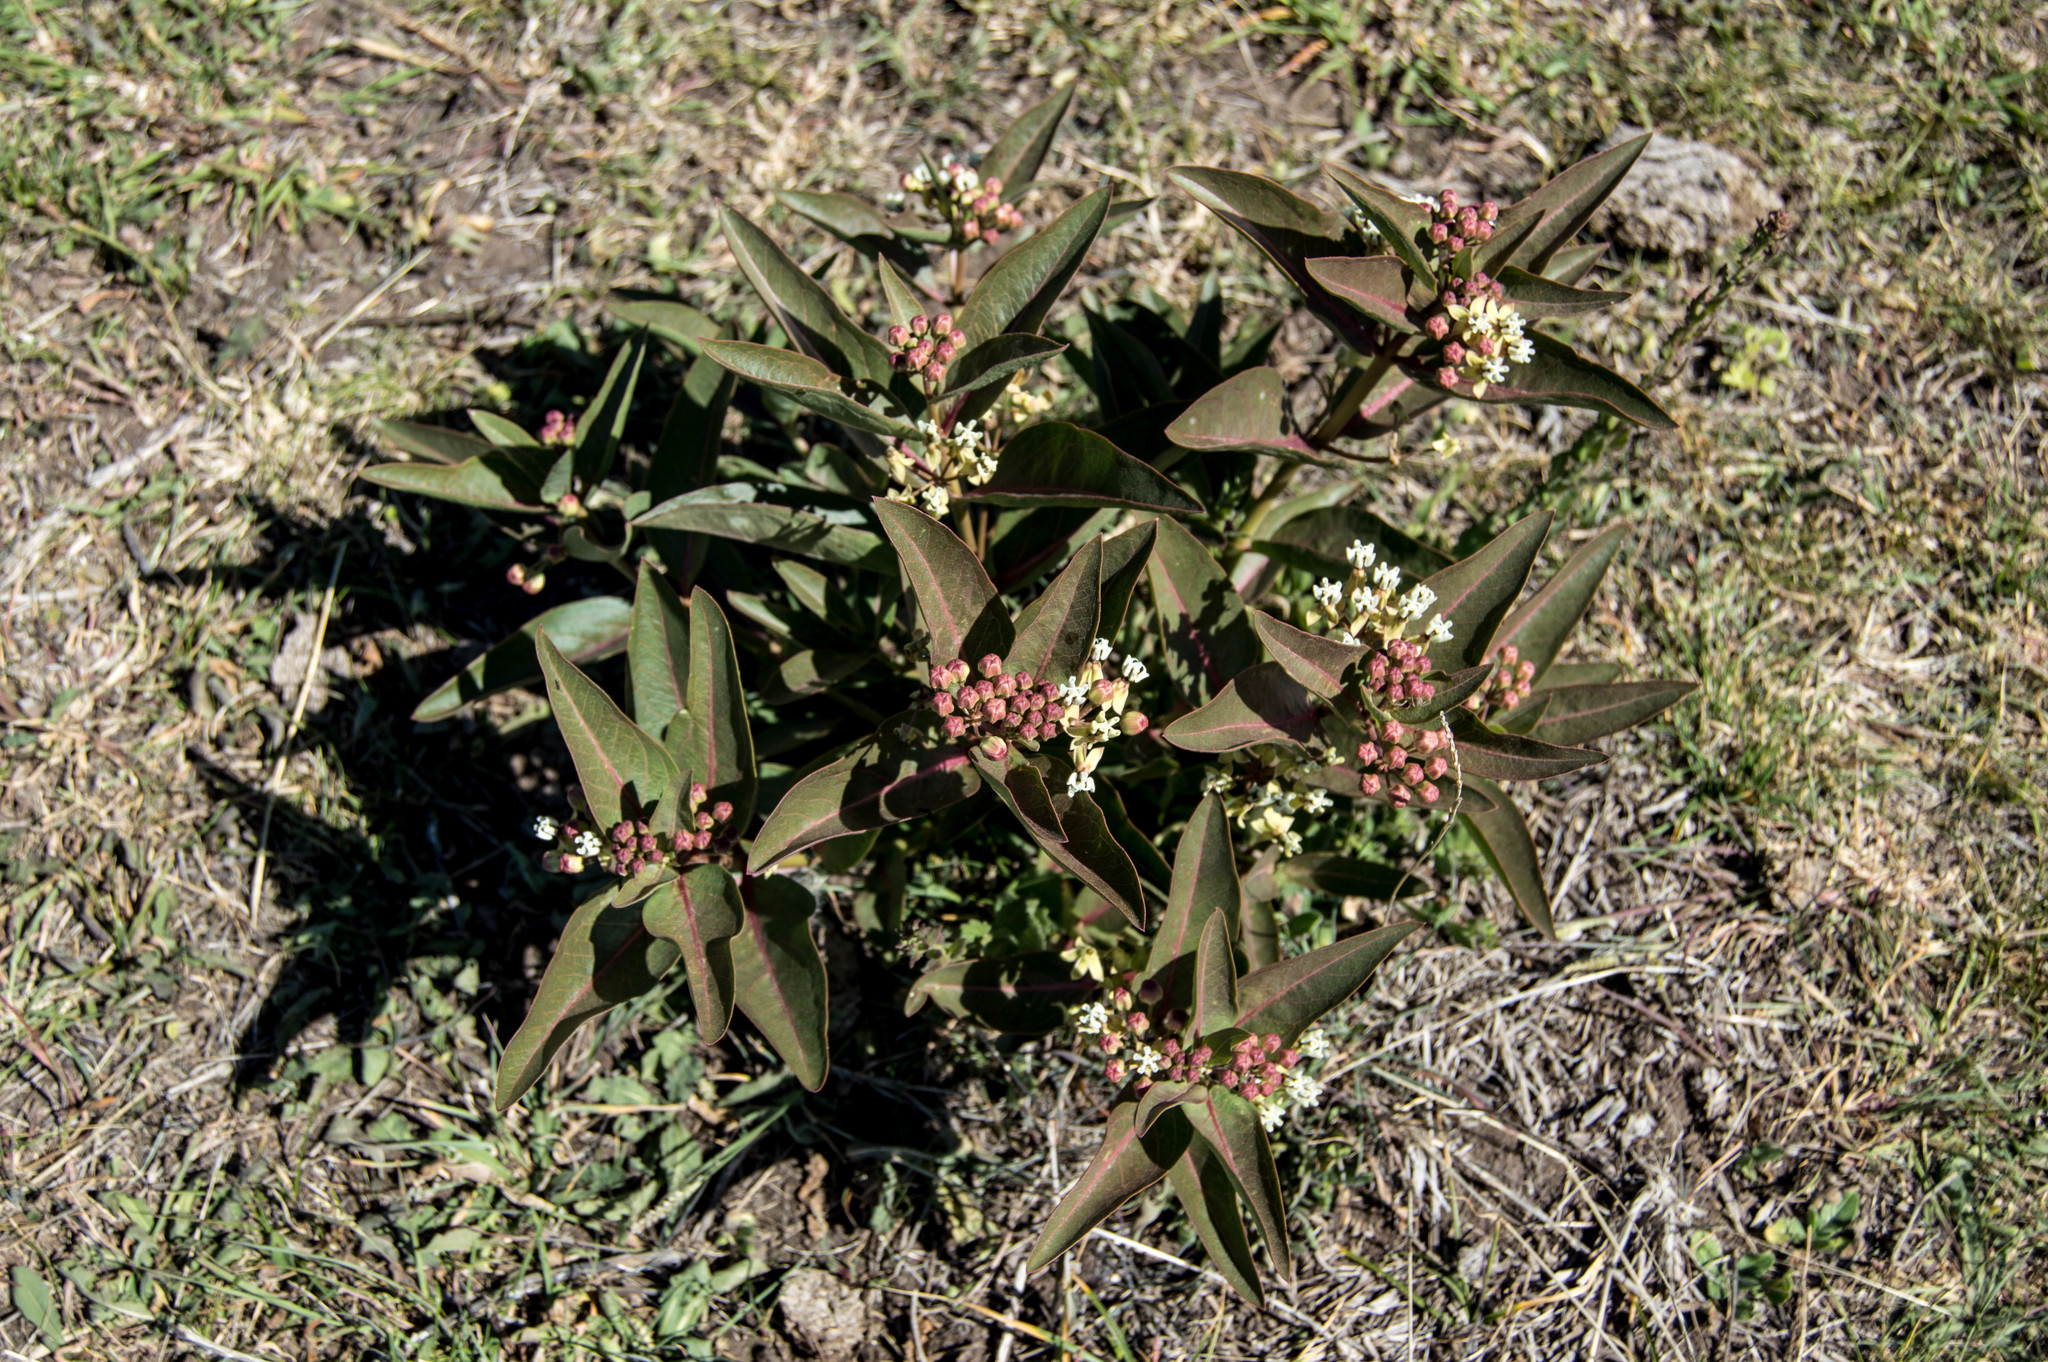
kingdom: Plantae
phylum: Tracheophyta
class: Magnoliopsida
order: Gentianales
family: Apocynaceae
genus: Asclepias
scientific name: Asclepias mellodora
